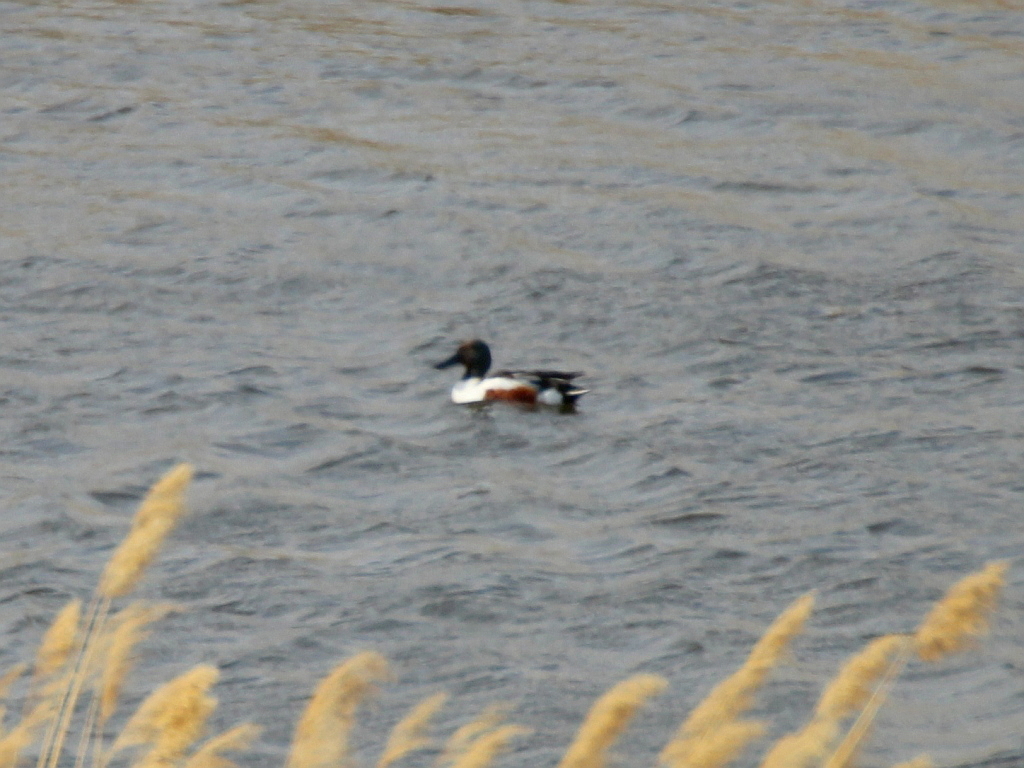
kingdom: Animalia
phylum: Chordata
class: Aves
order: Anseriformes
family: Anatidae
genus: Spatula
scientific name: Spatula clypeata
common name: Northern shoveler
